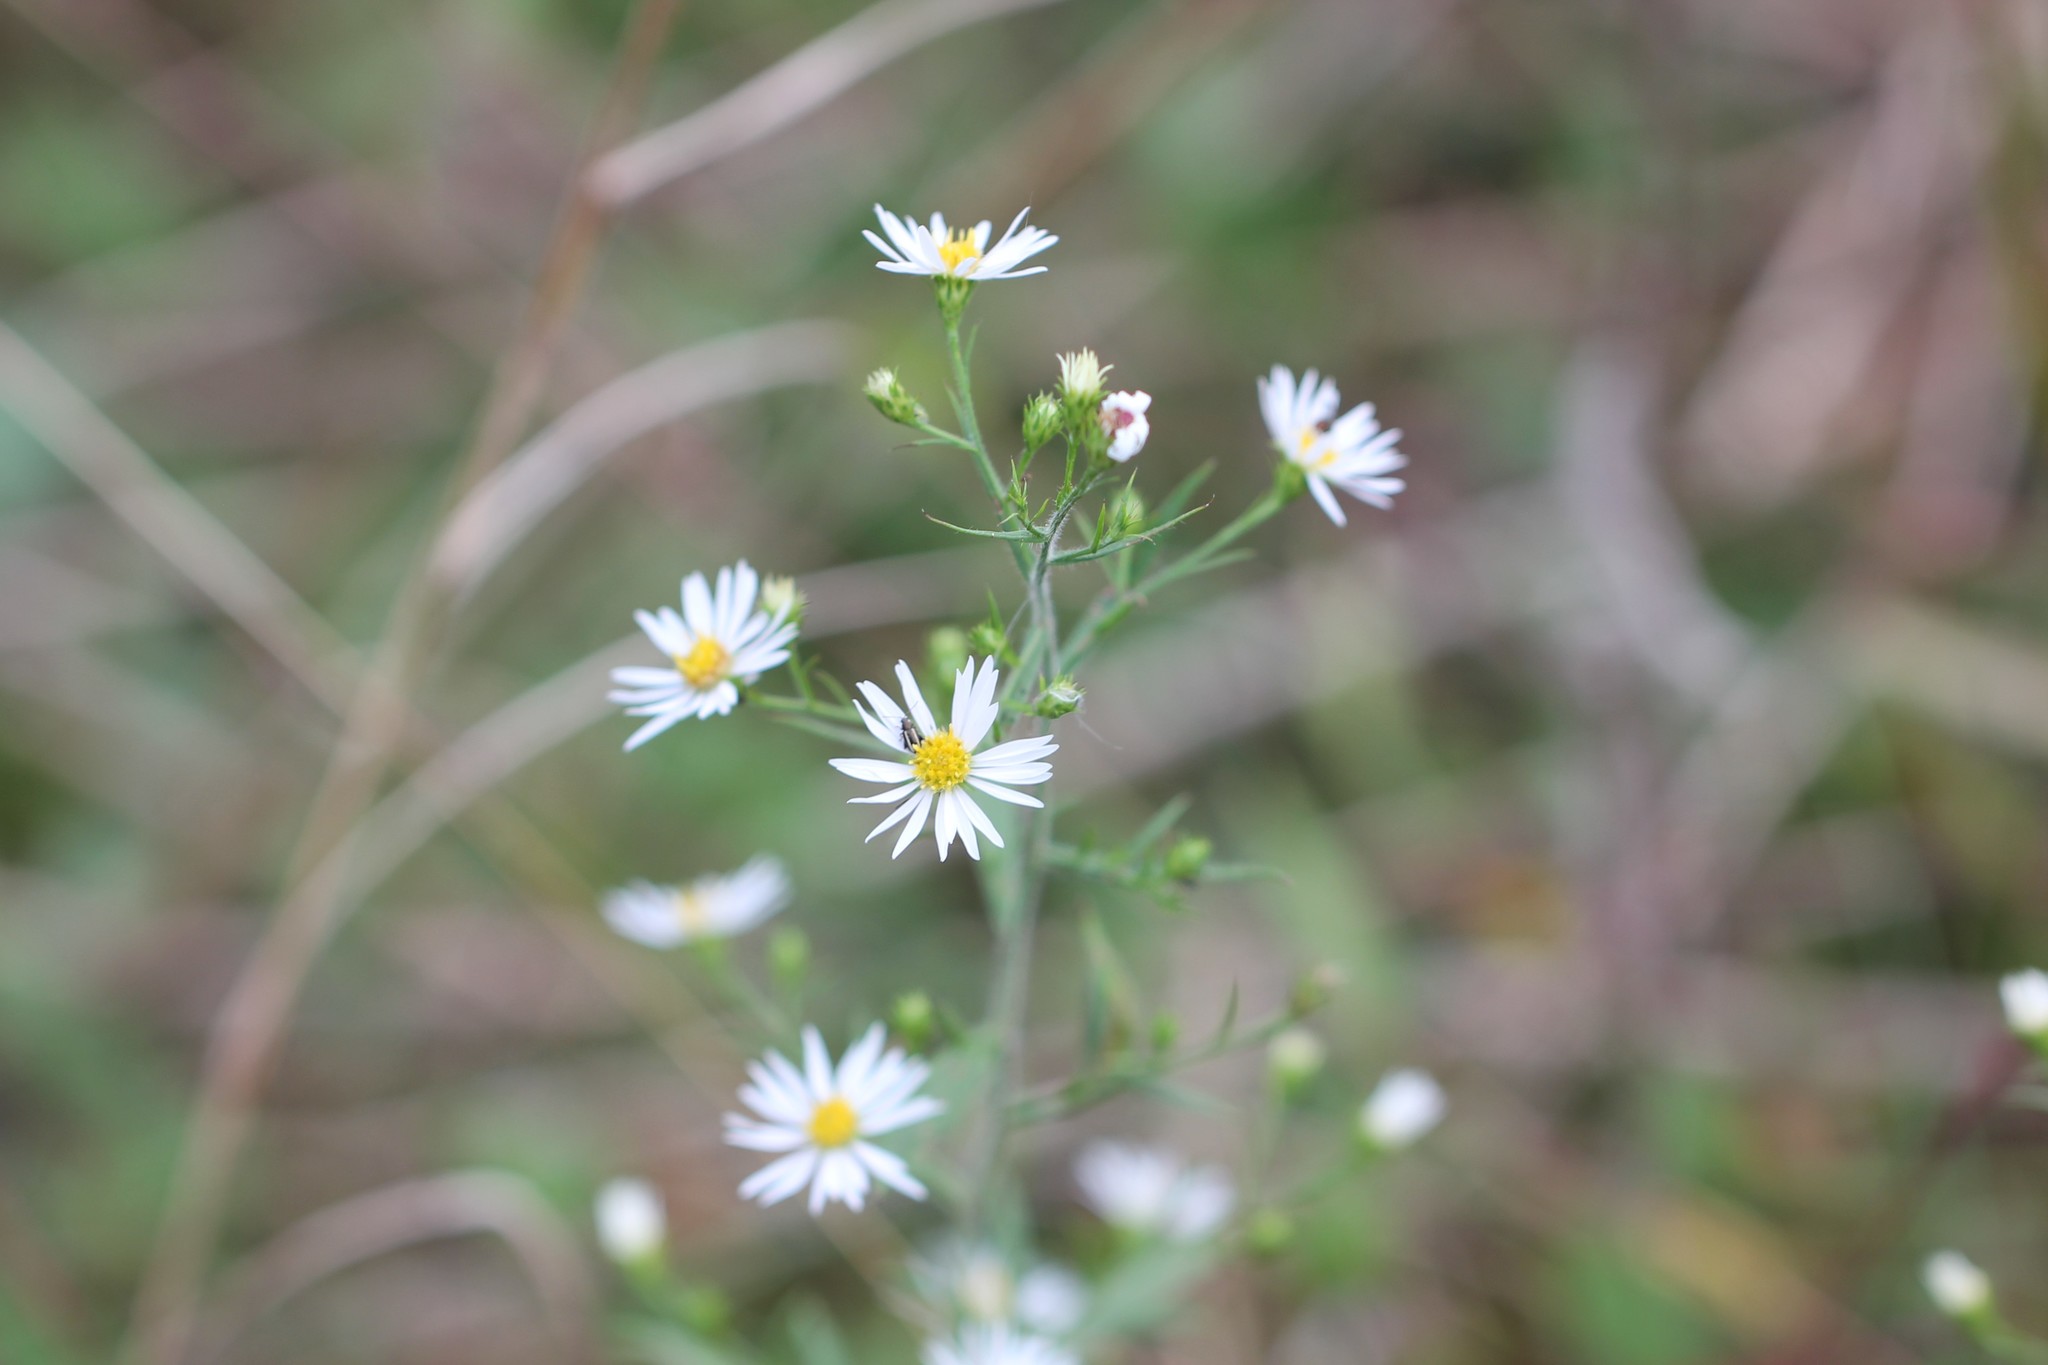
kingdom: Plantae
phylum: Tracheophyta
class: Magnoliopsida
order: Asterales
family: Asteraceae
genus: Symphyotrichum
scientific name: Symphyotrichum pilosum
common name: Awl aster
